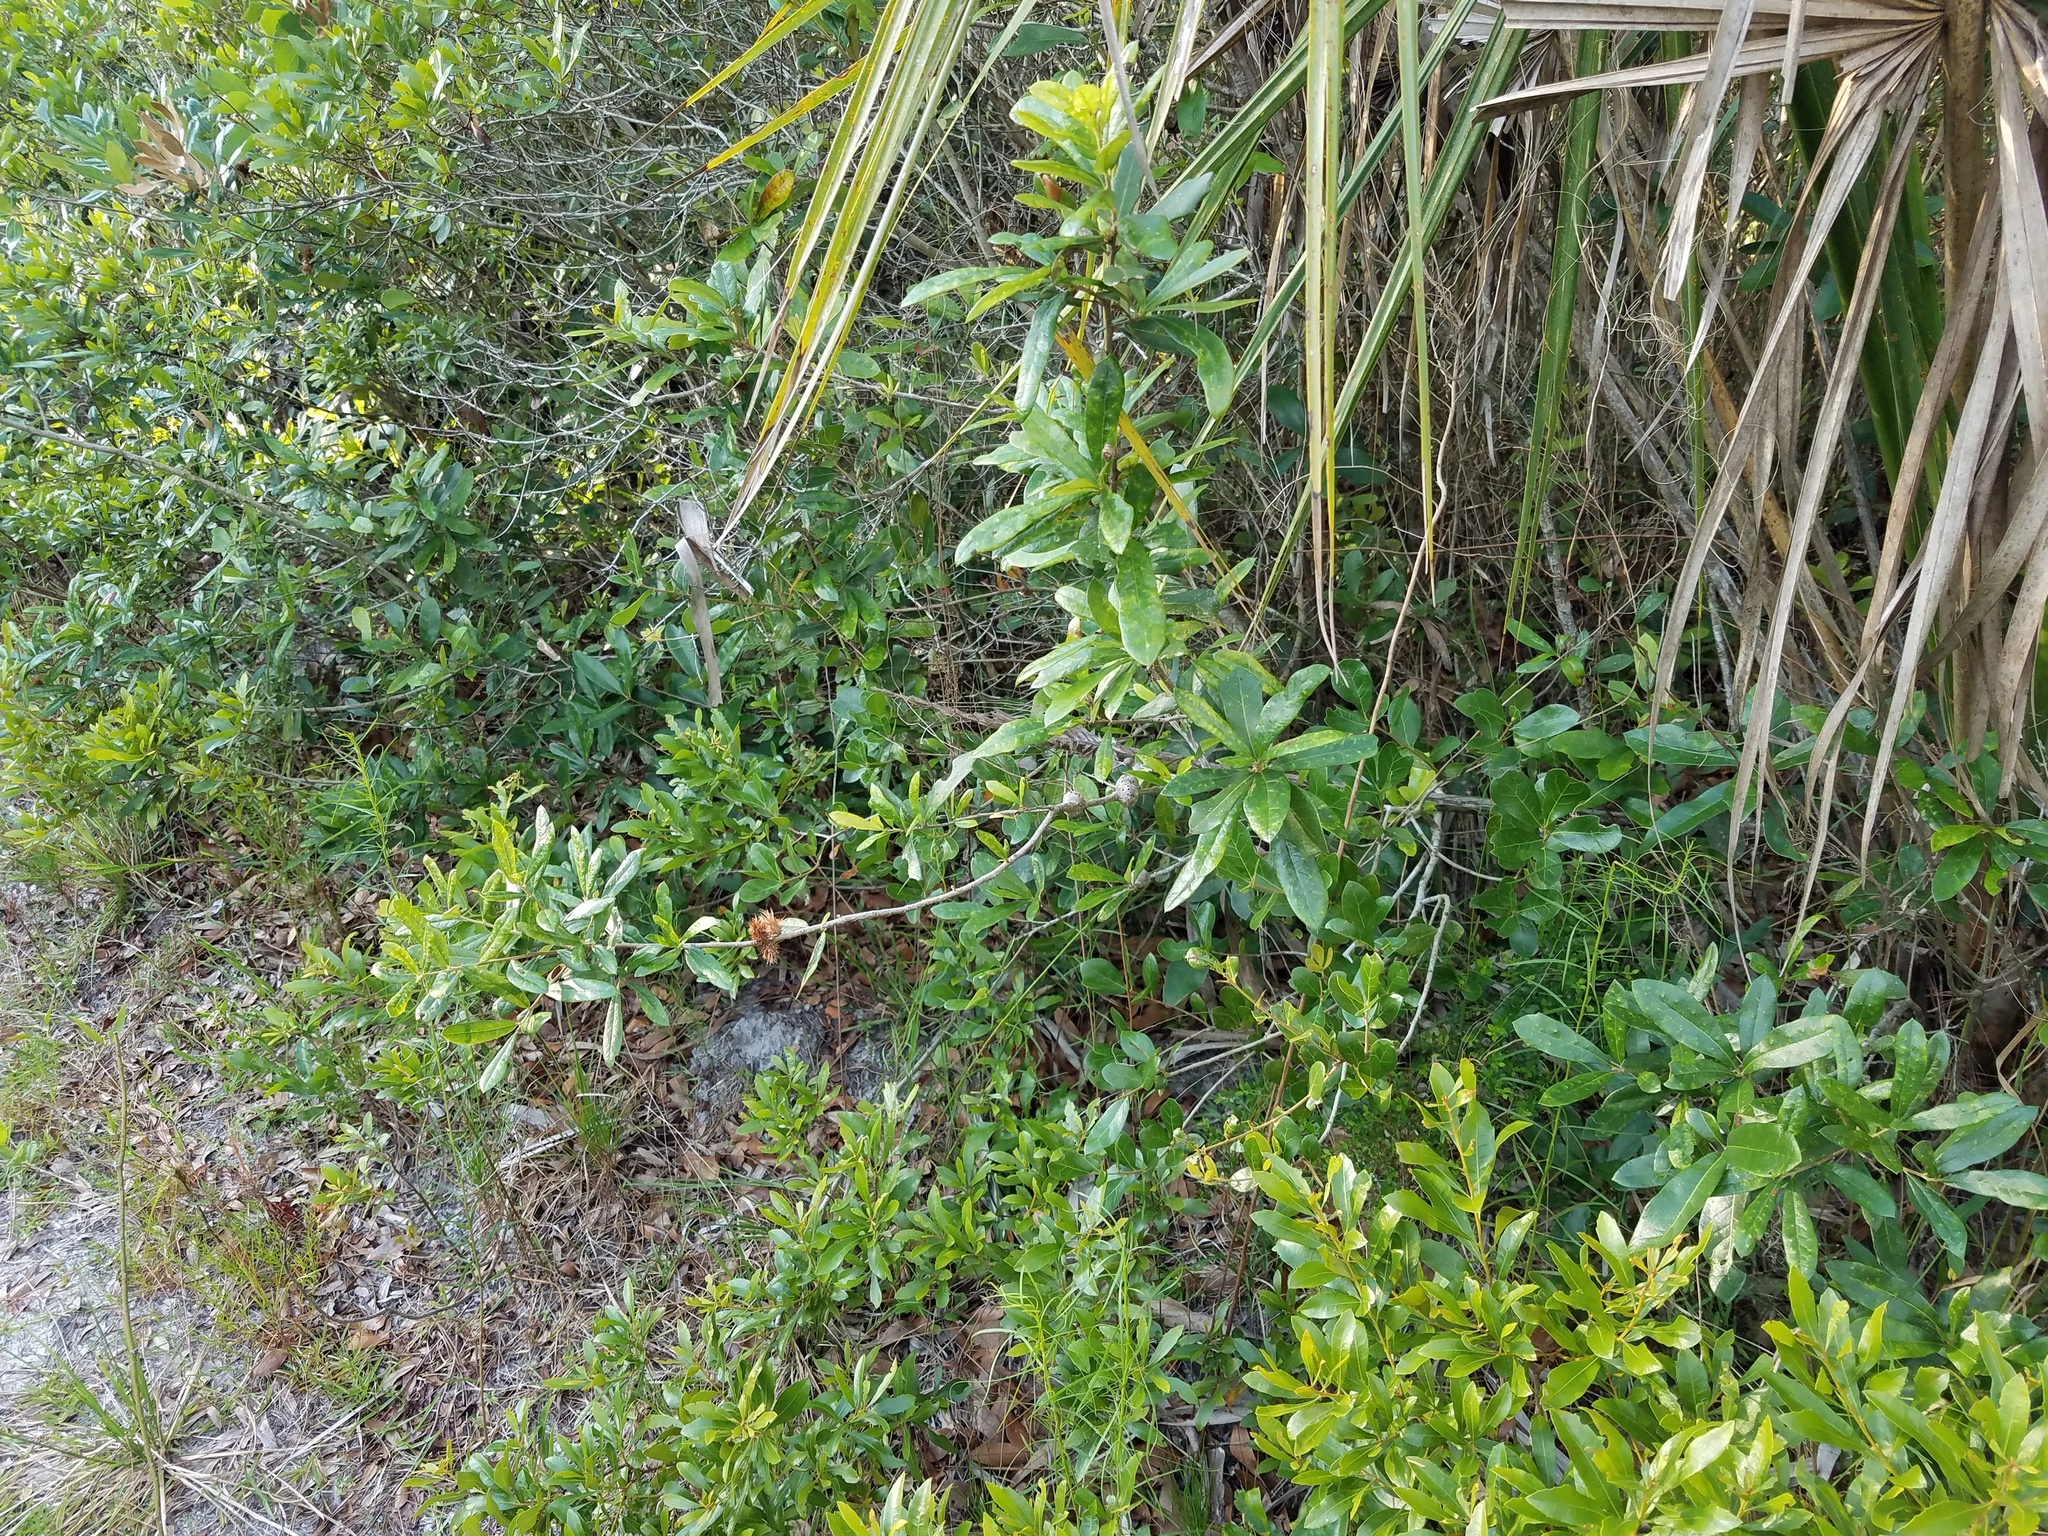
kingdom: Plantae
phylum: Tracheophyta
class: Magnoliopsida
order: Fagales
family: Fagaceae
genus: Quercus
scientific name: Quercus virginiana
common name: Southern live oak
